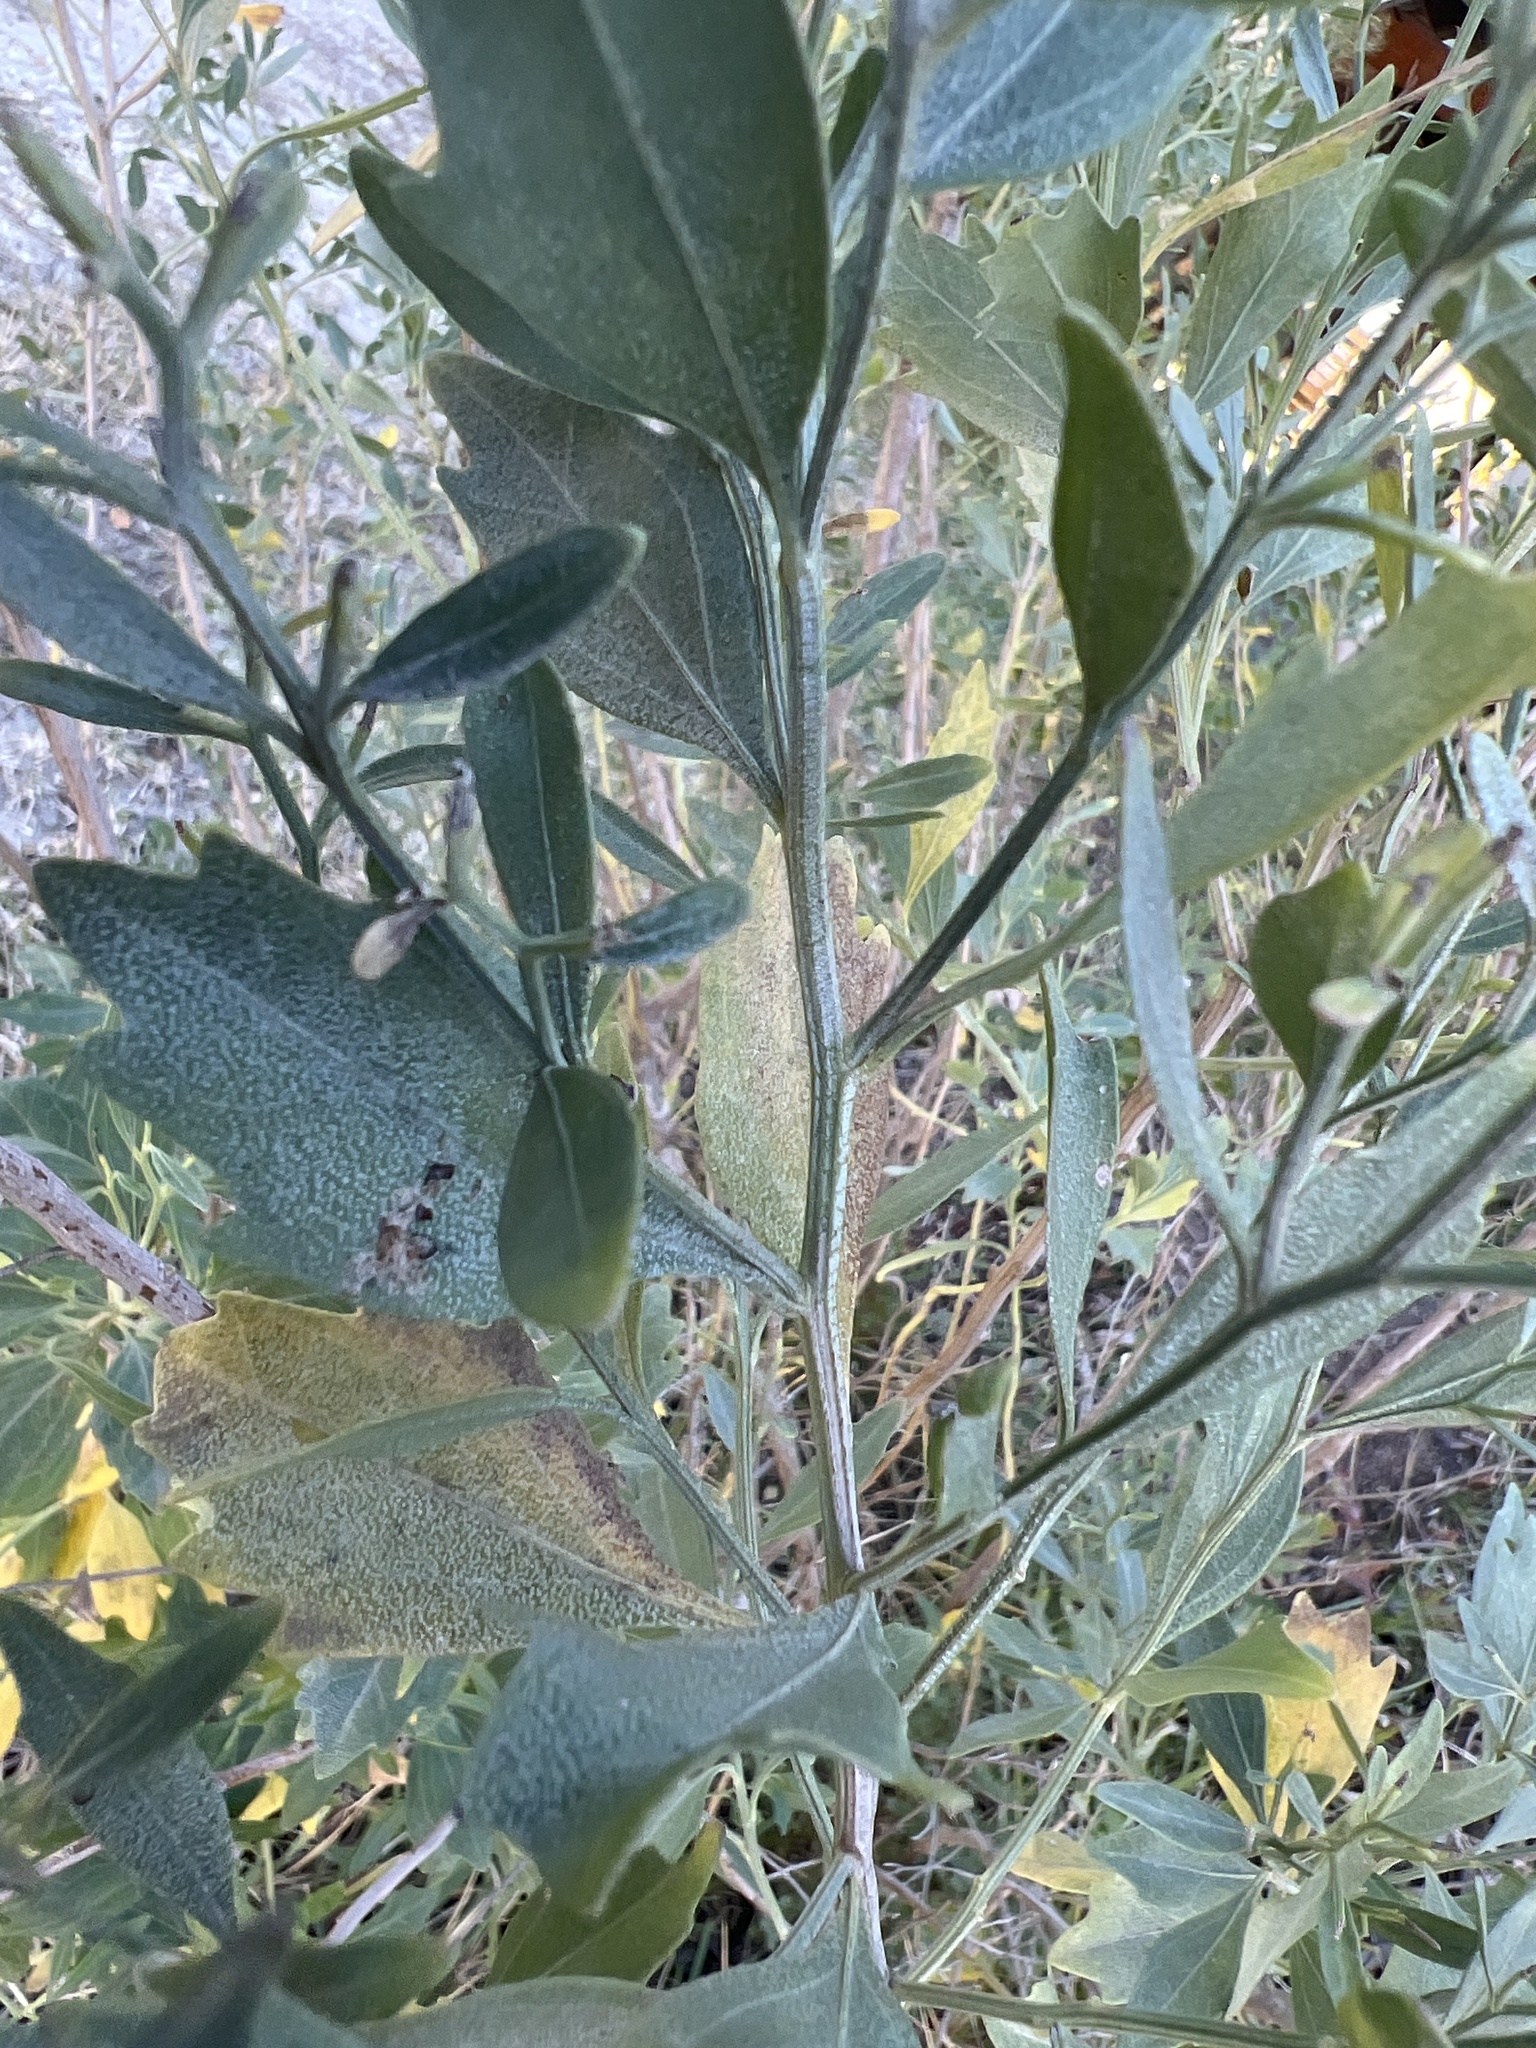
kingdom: Plantae
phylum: Tracheophyta
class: Magnoliopsida
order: Asterales
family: Asteraceae
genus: Baccharis
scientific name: Baccharis halimifolia
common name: Eastern baccharis
